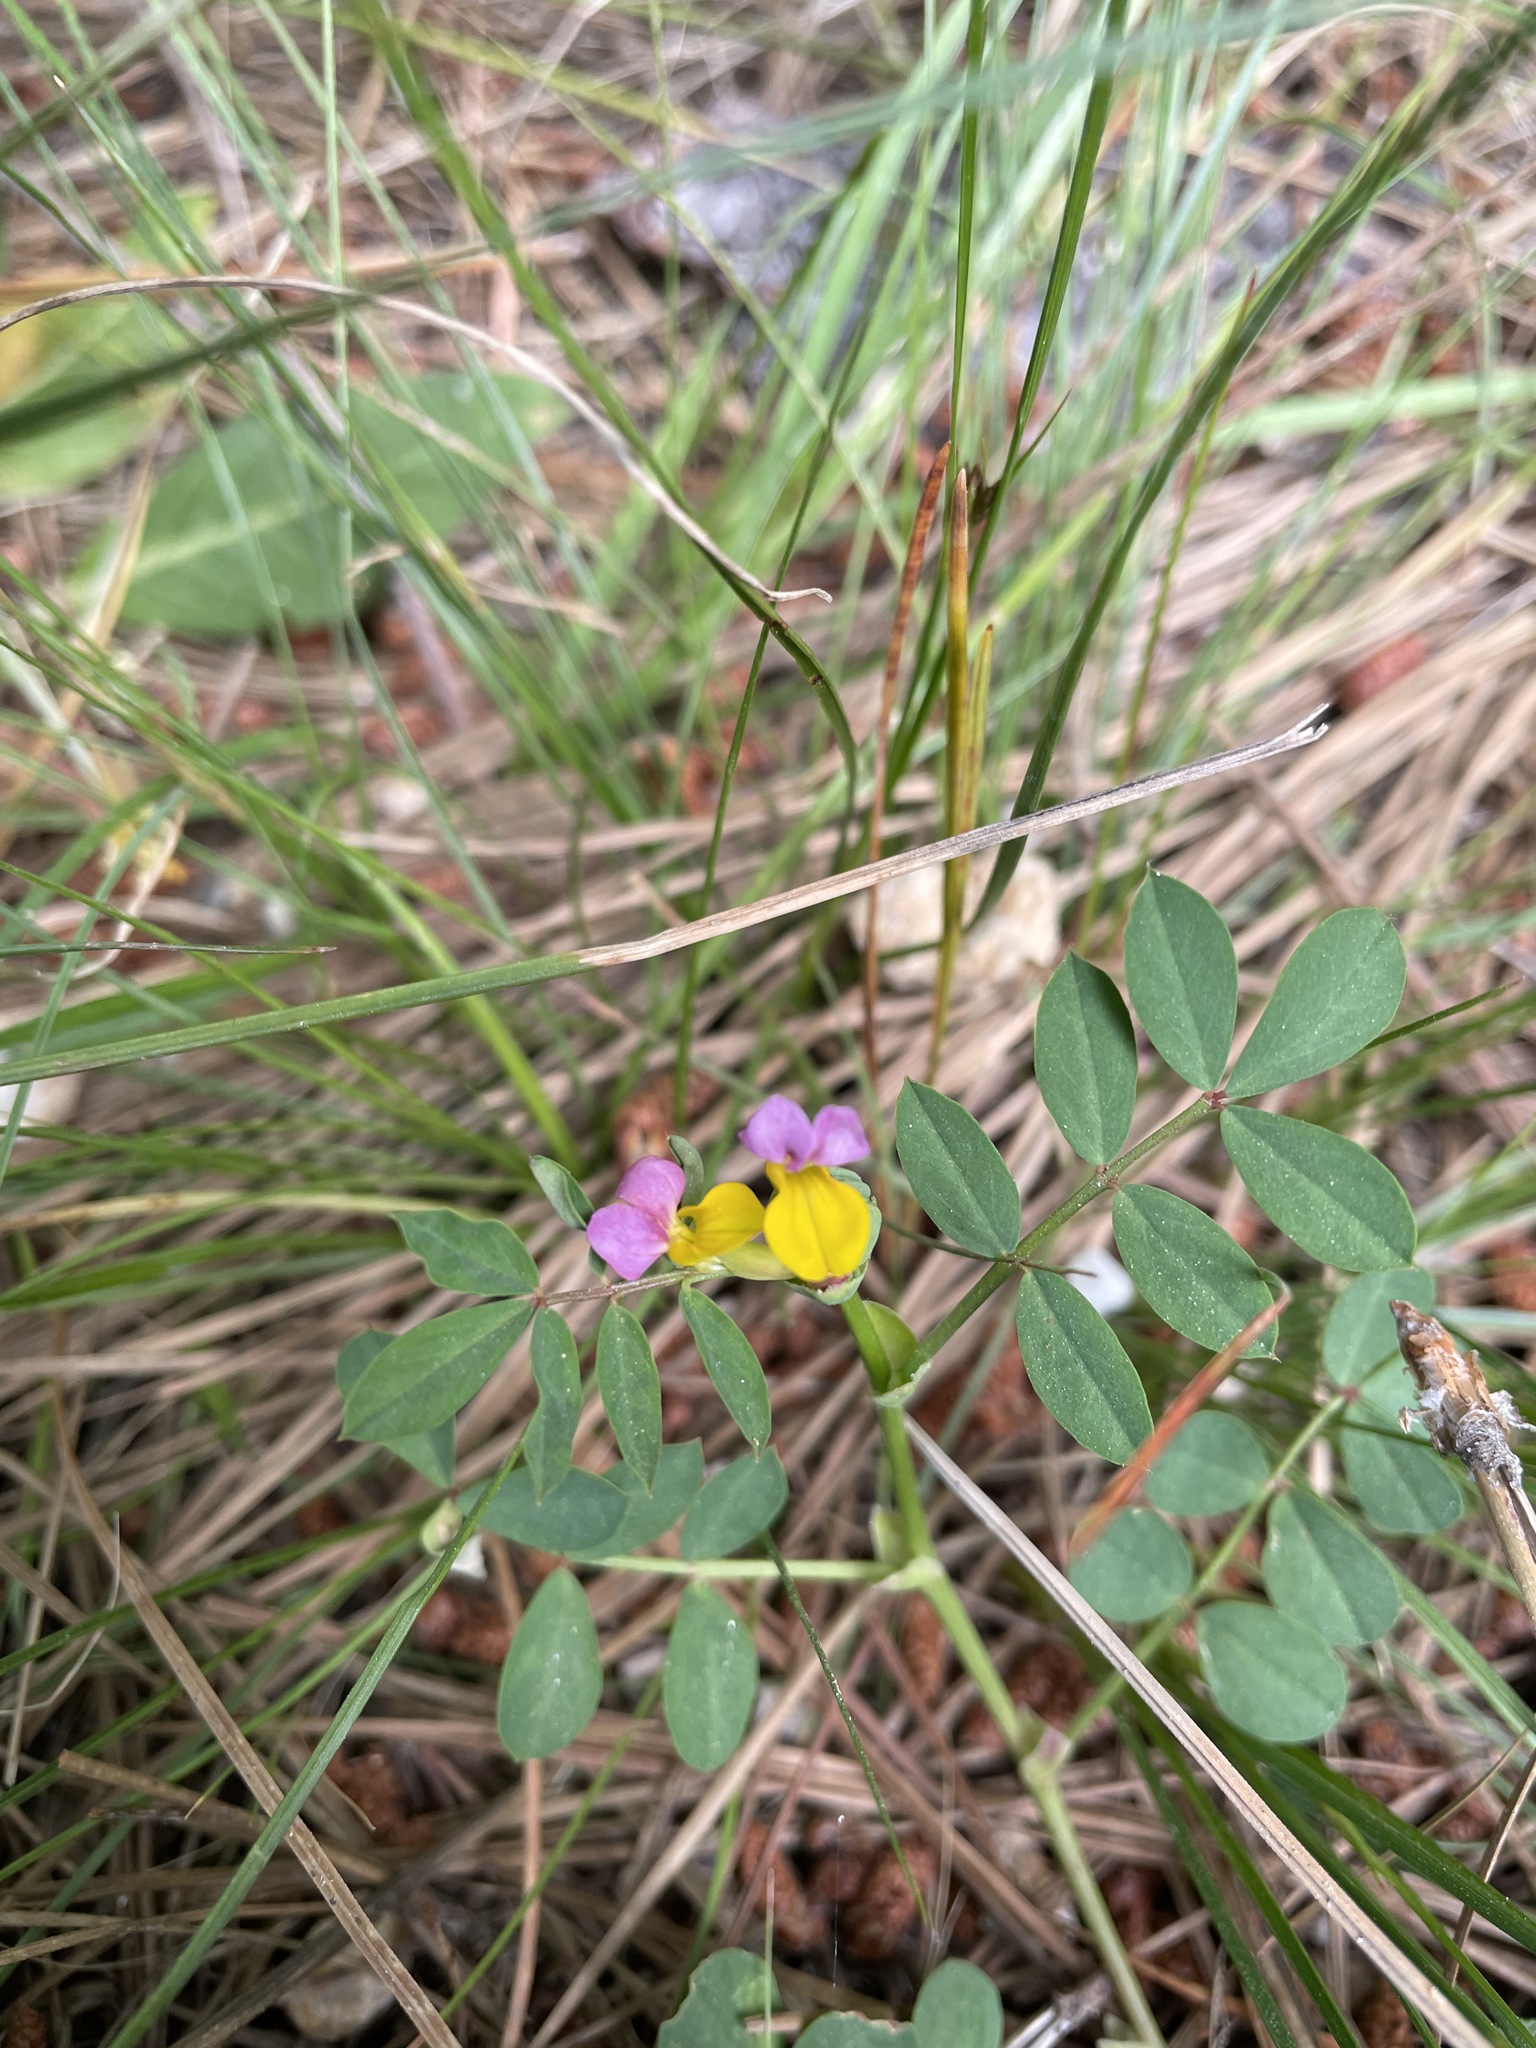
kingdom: Plantae
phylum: Tracheophyta
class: Magnoliopsida
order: Fabales
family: Fabaceae
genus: Hosackia
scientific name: Hosackia gracilis
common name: Seaside bird's-foot lotus
